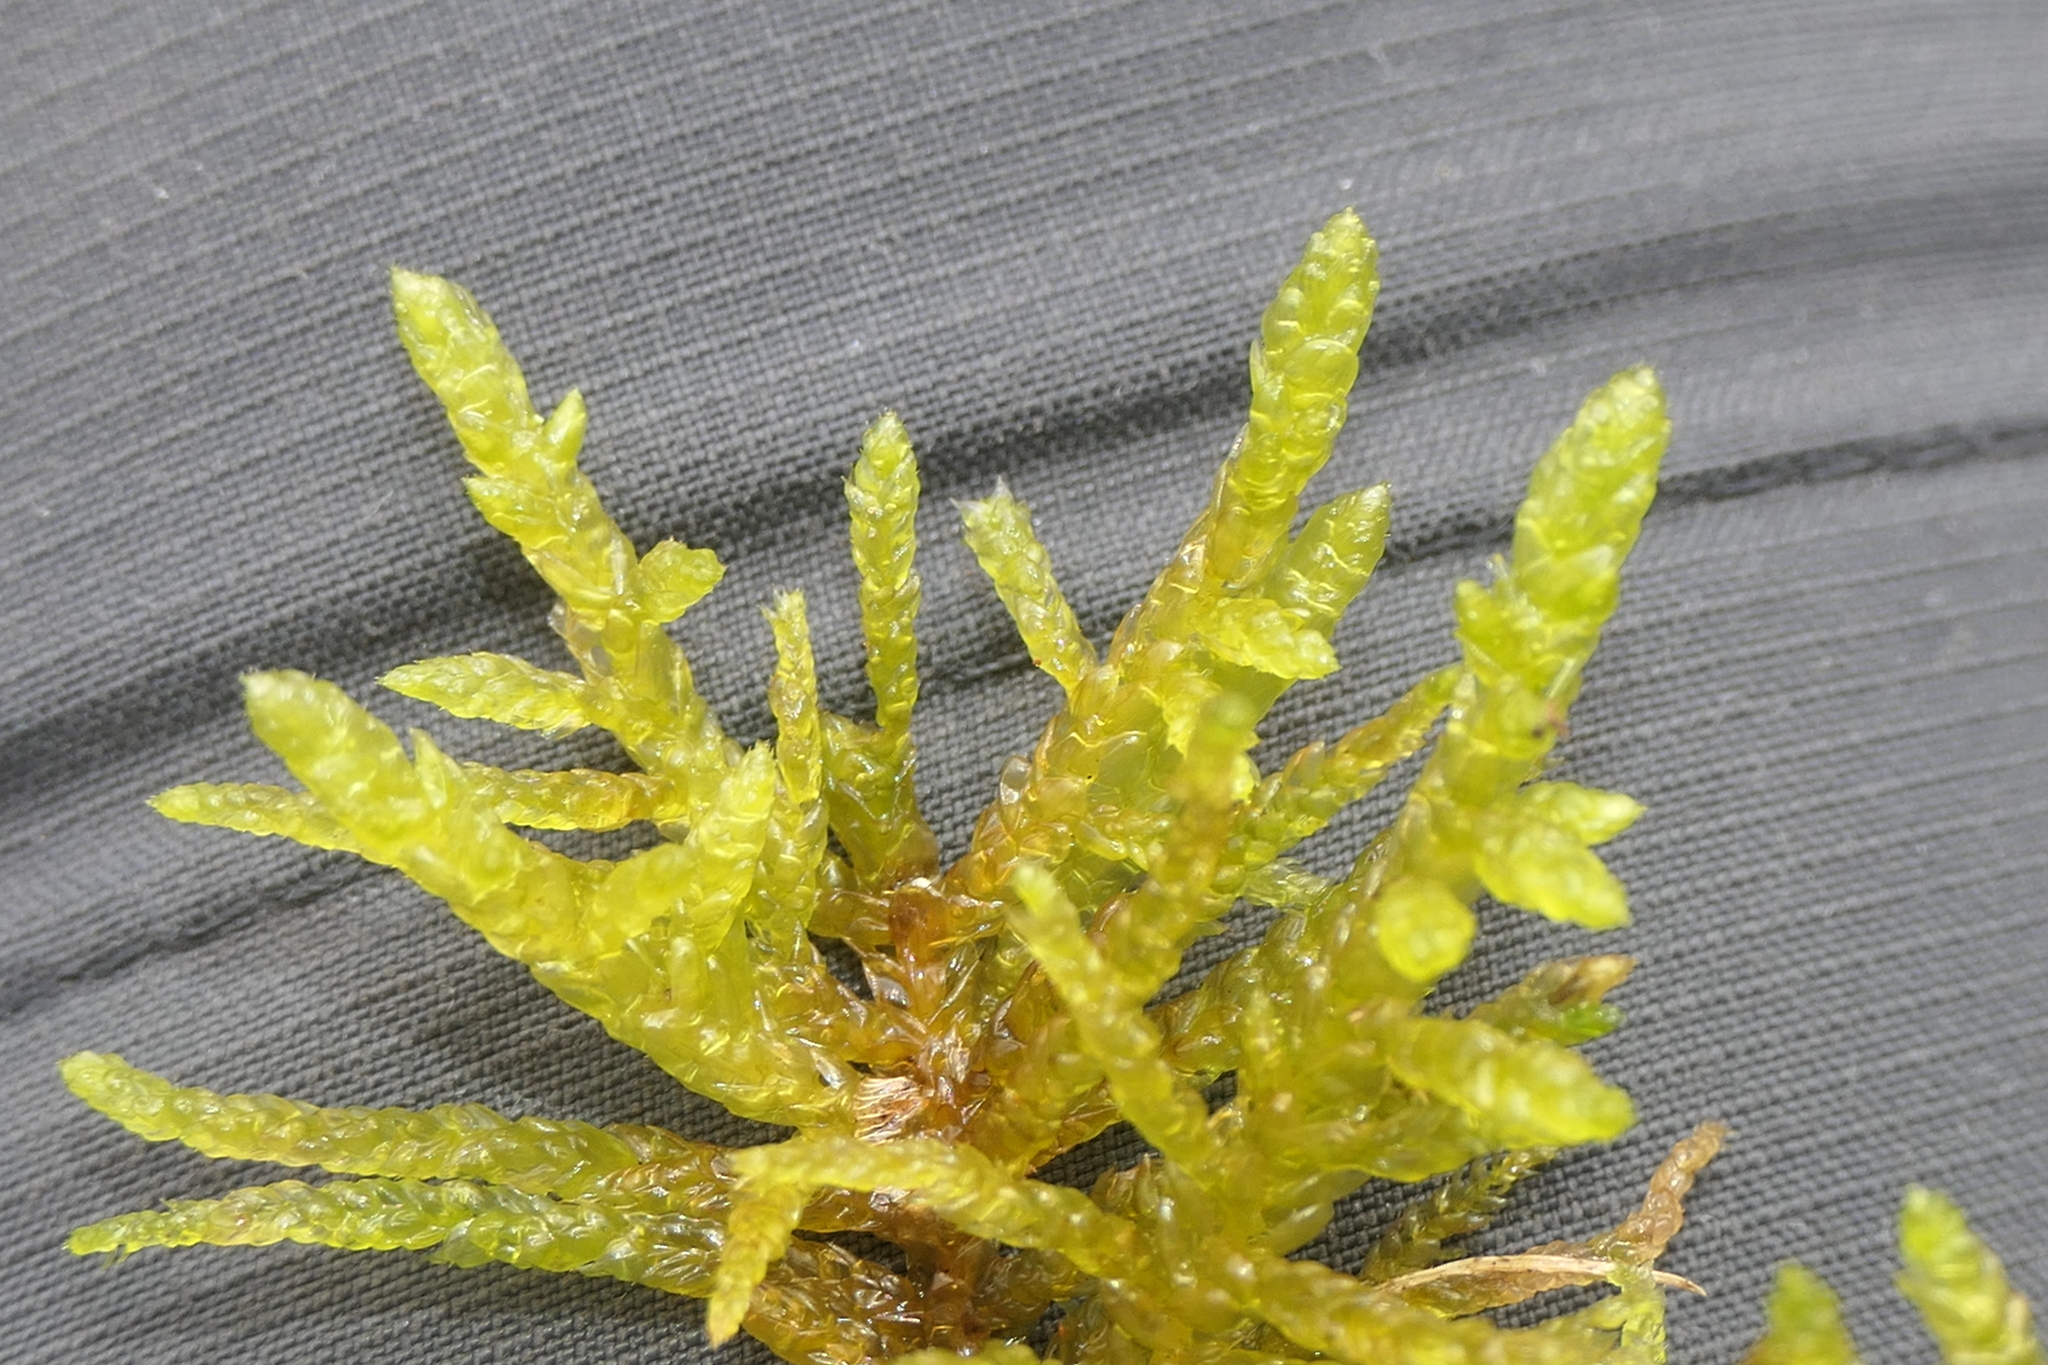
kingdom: Plantae
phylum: Bryophyta
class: Bryopsida
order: Hypnales
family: Brachytheciaceae
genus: Pseudoscleropodium
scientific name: Pseudoscleropodium purum
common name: Neat feather-moss
